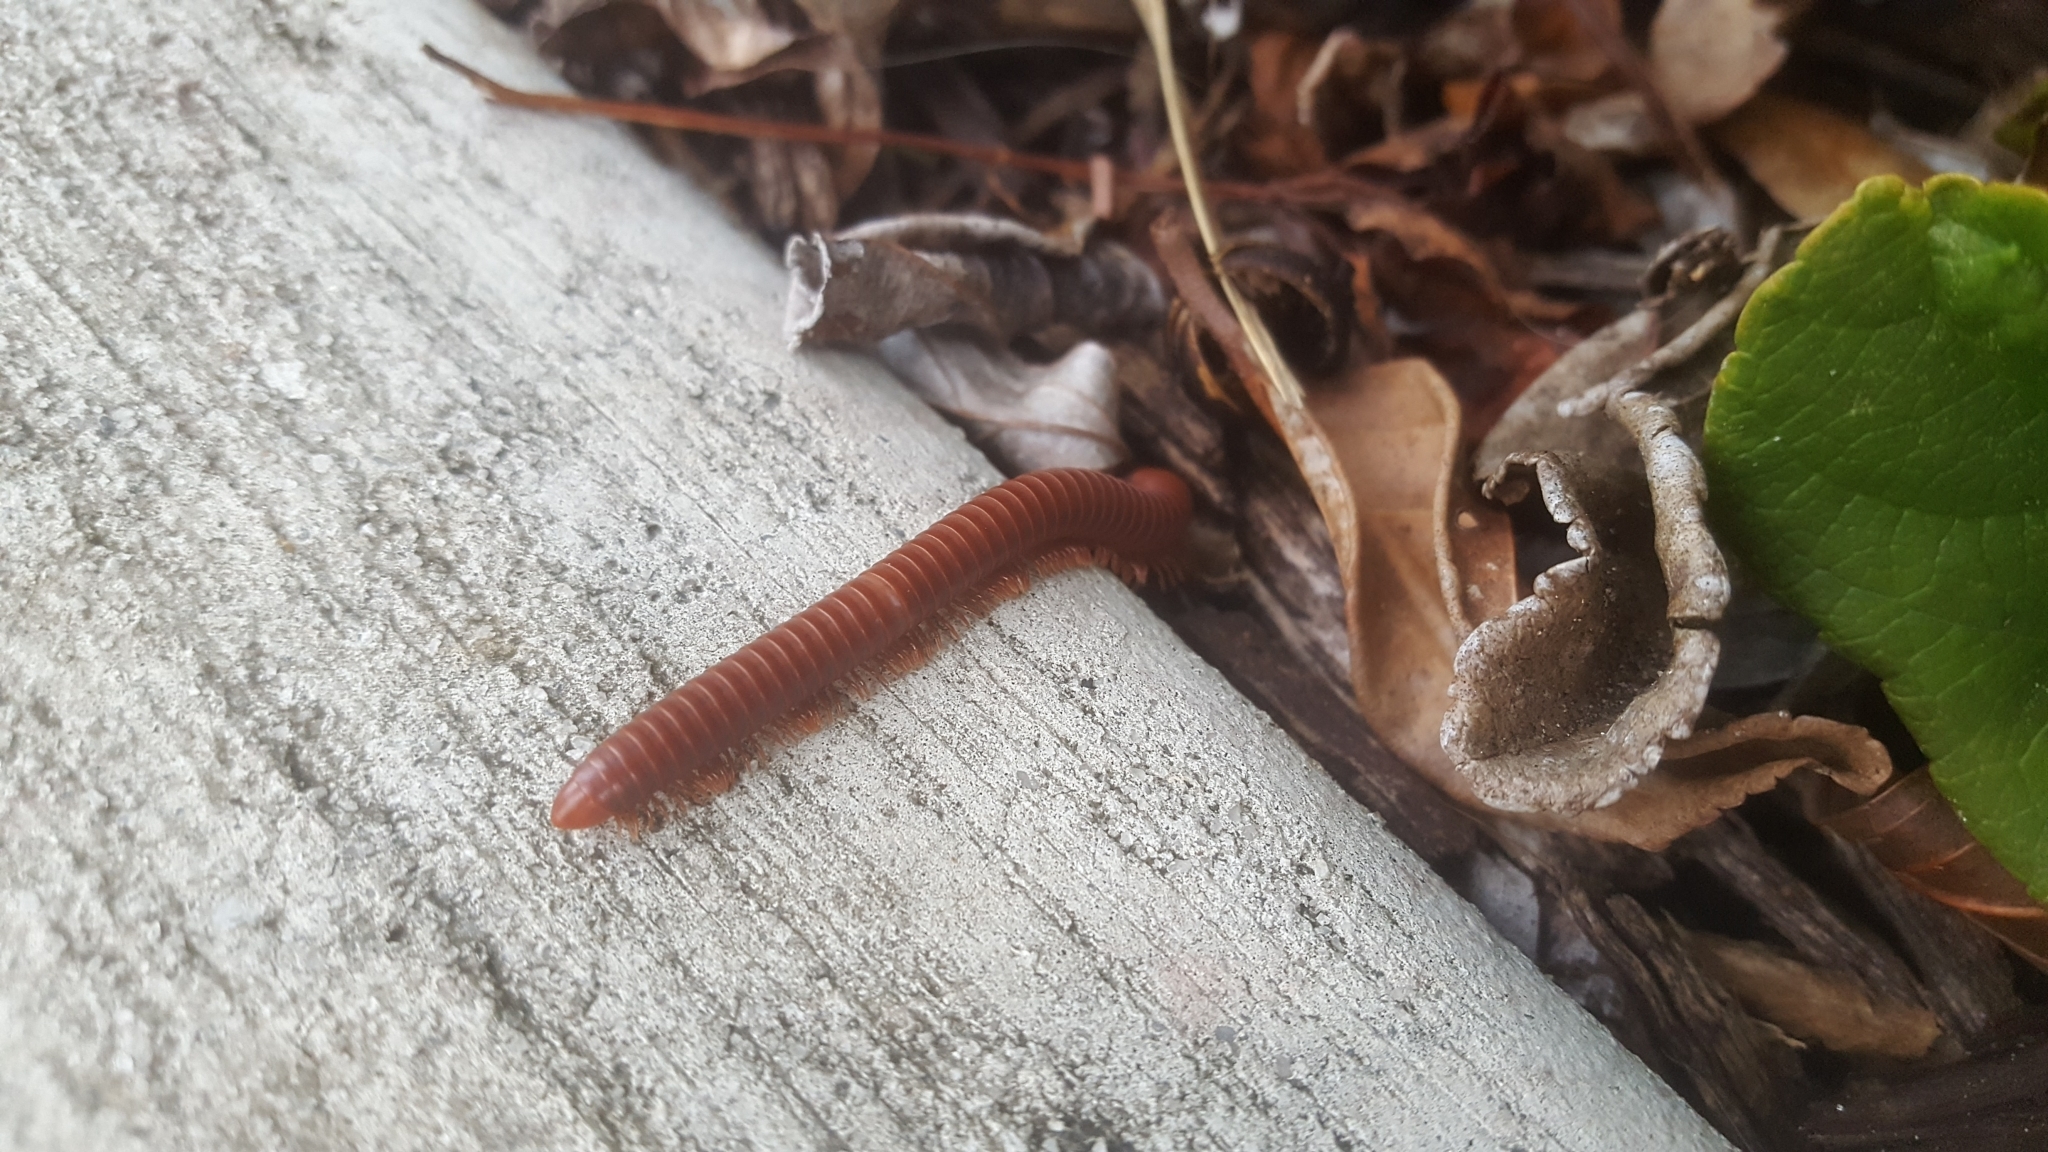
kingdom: Animalia
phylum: Arthropoda
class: Diplopoda
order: Spirobolida
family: Pachybolidae
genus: Trigoniulus
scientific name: Trigoniulus corallinus
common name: Millipede
